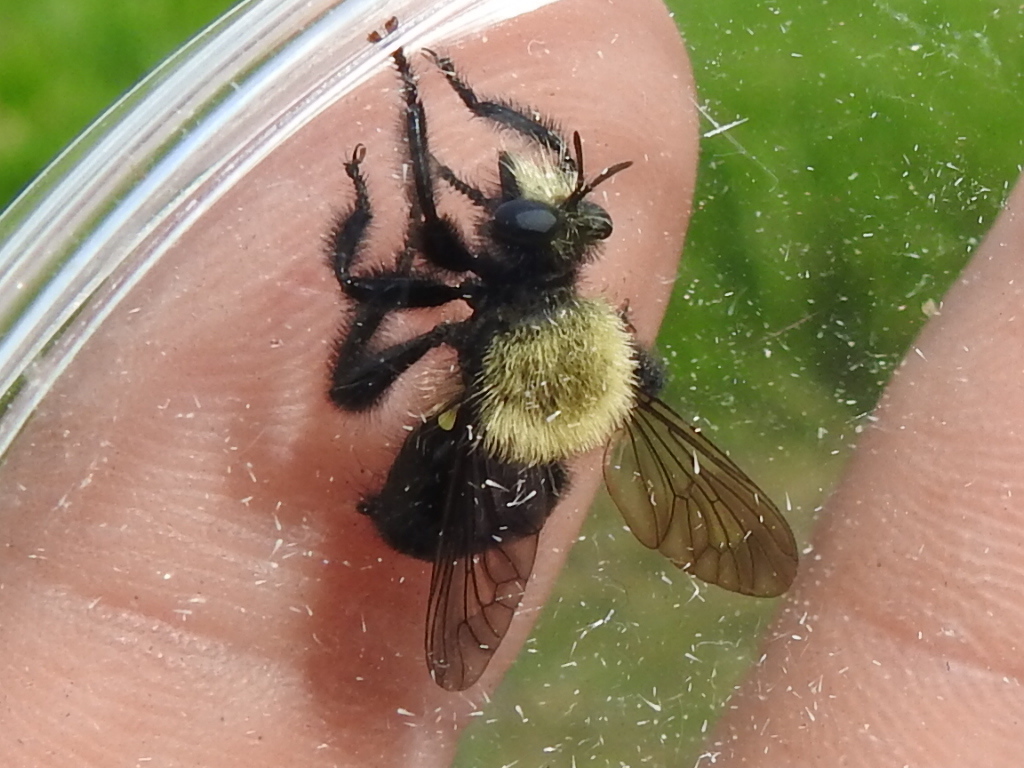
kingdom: Animalia
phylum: Arthropoda
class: Insecta
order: Diptera
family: Asilidae
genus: Laphria
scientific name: Laphria flavicollis
